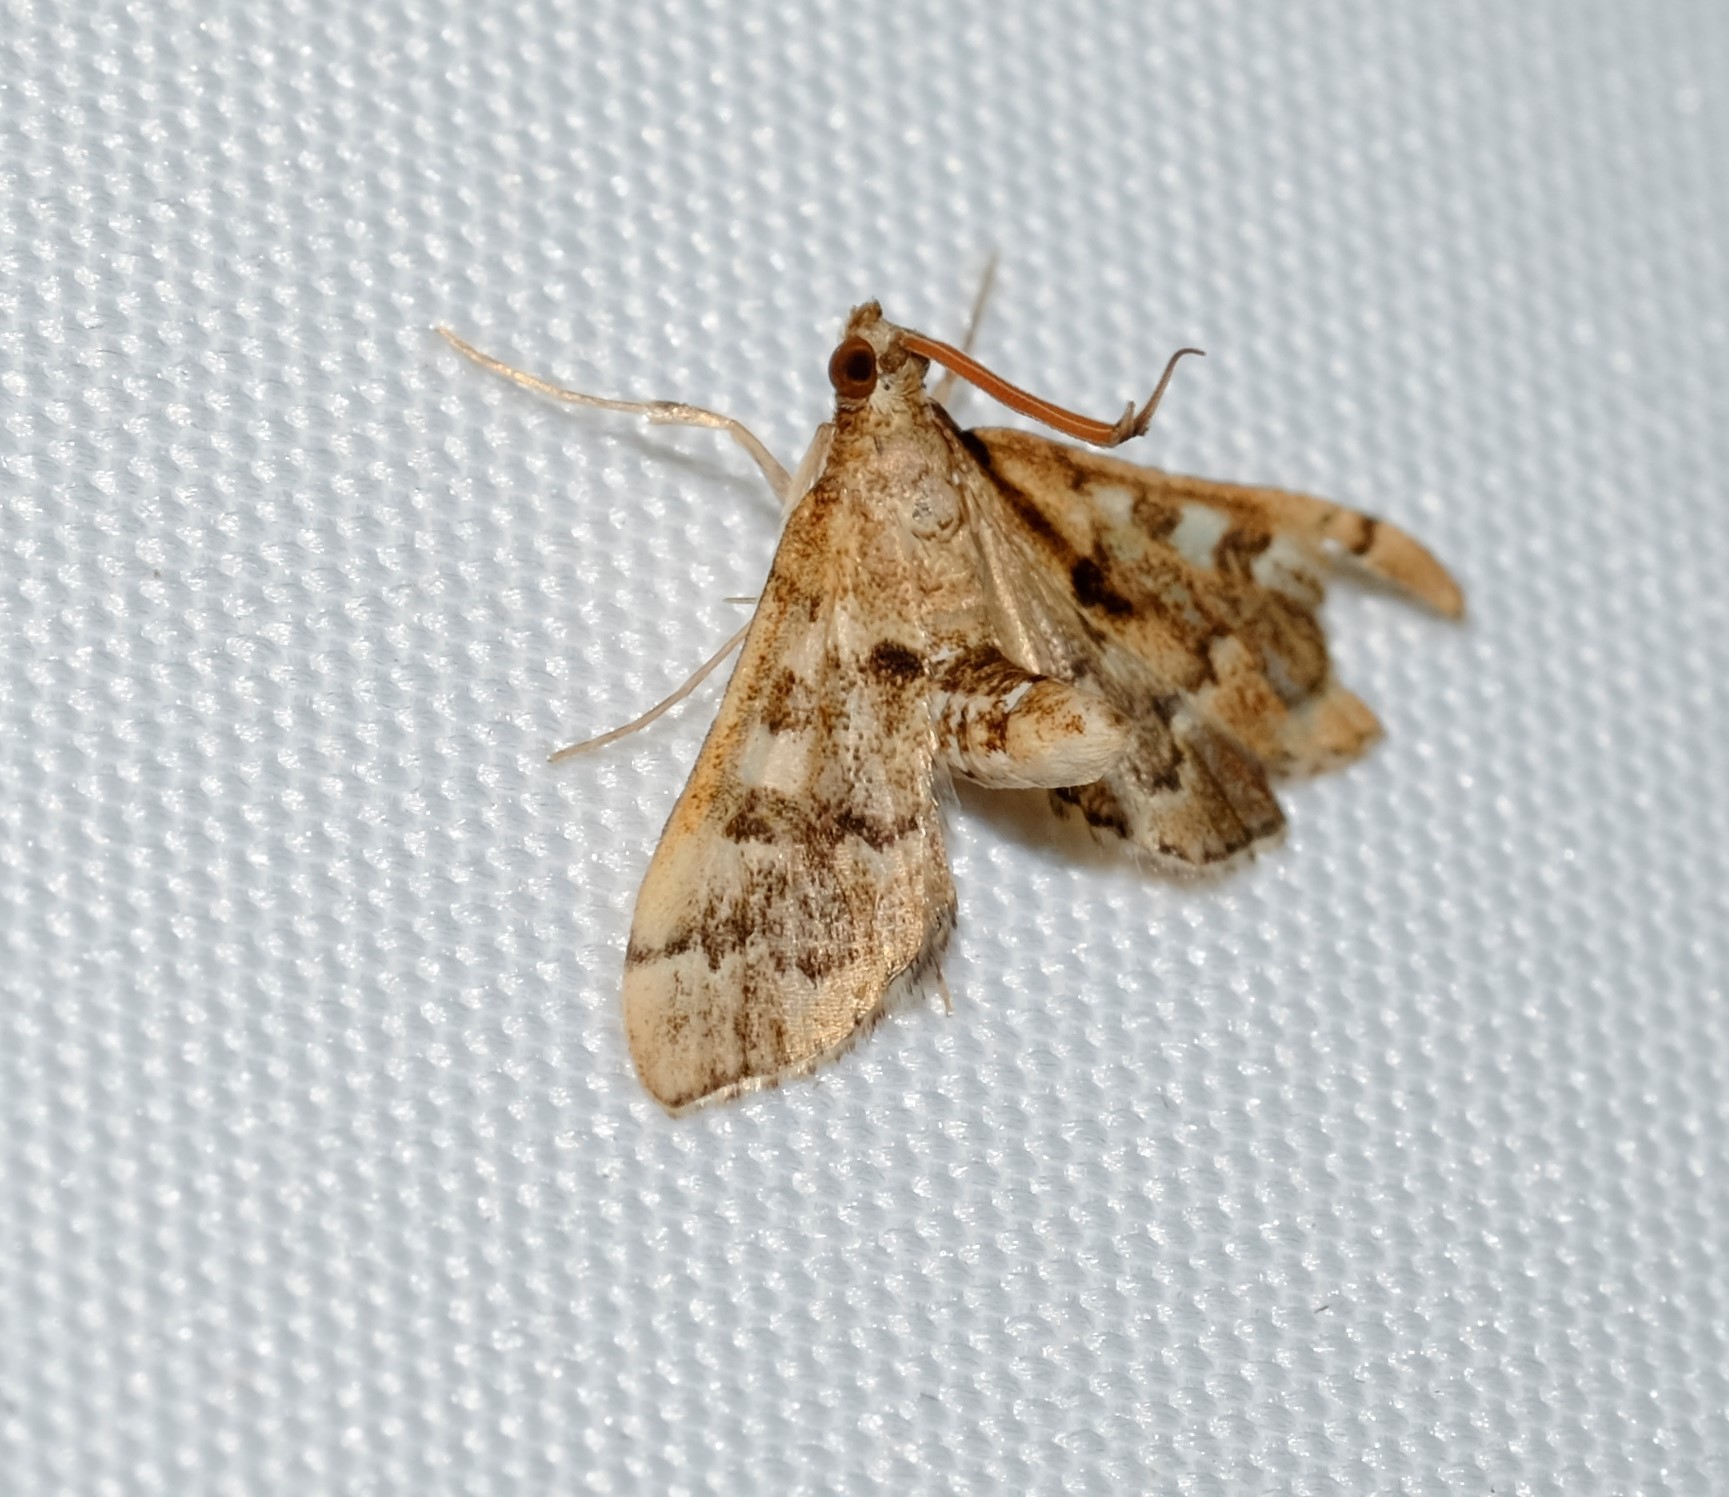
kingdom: Animalia
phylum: Arthropoda
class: Insecta
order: Lepidoptera
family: Crambidae
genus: Nacoleia
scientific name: Nacoleia rhoeoalis
